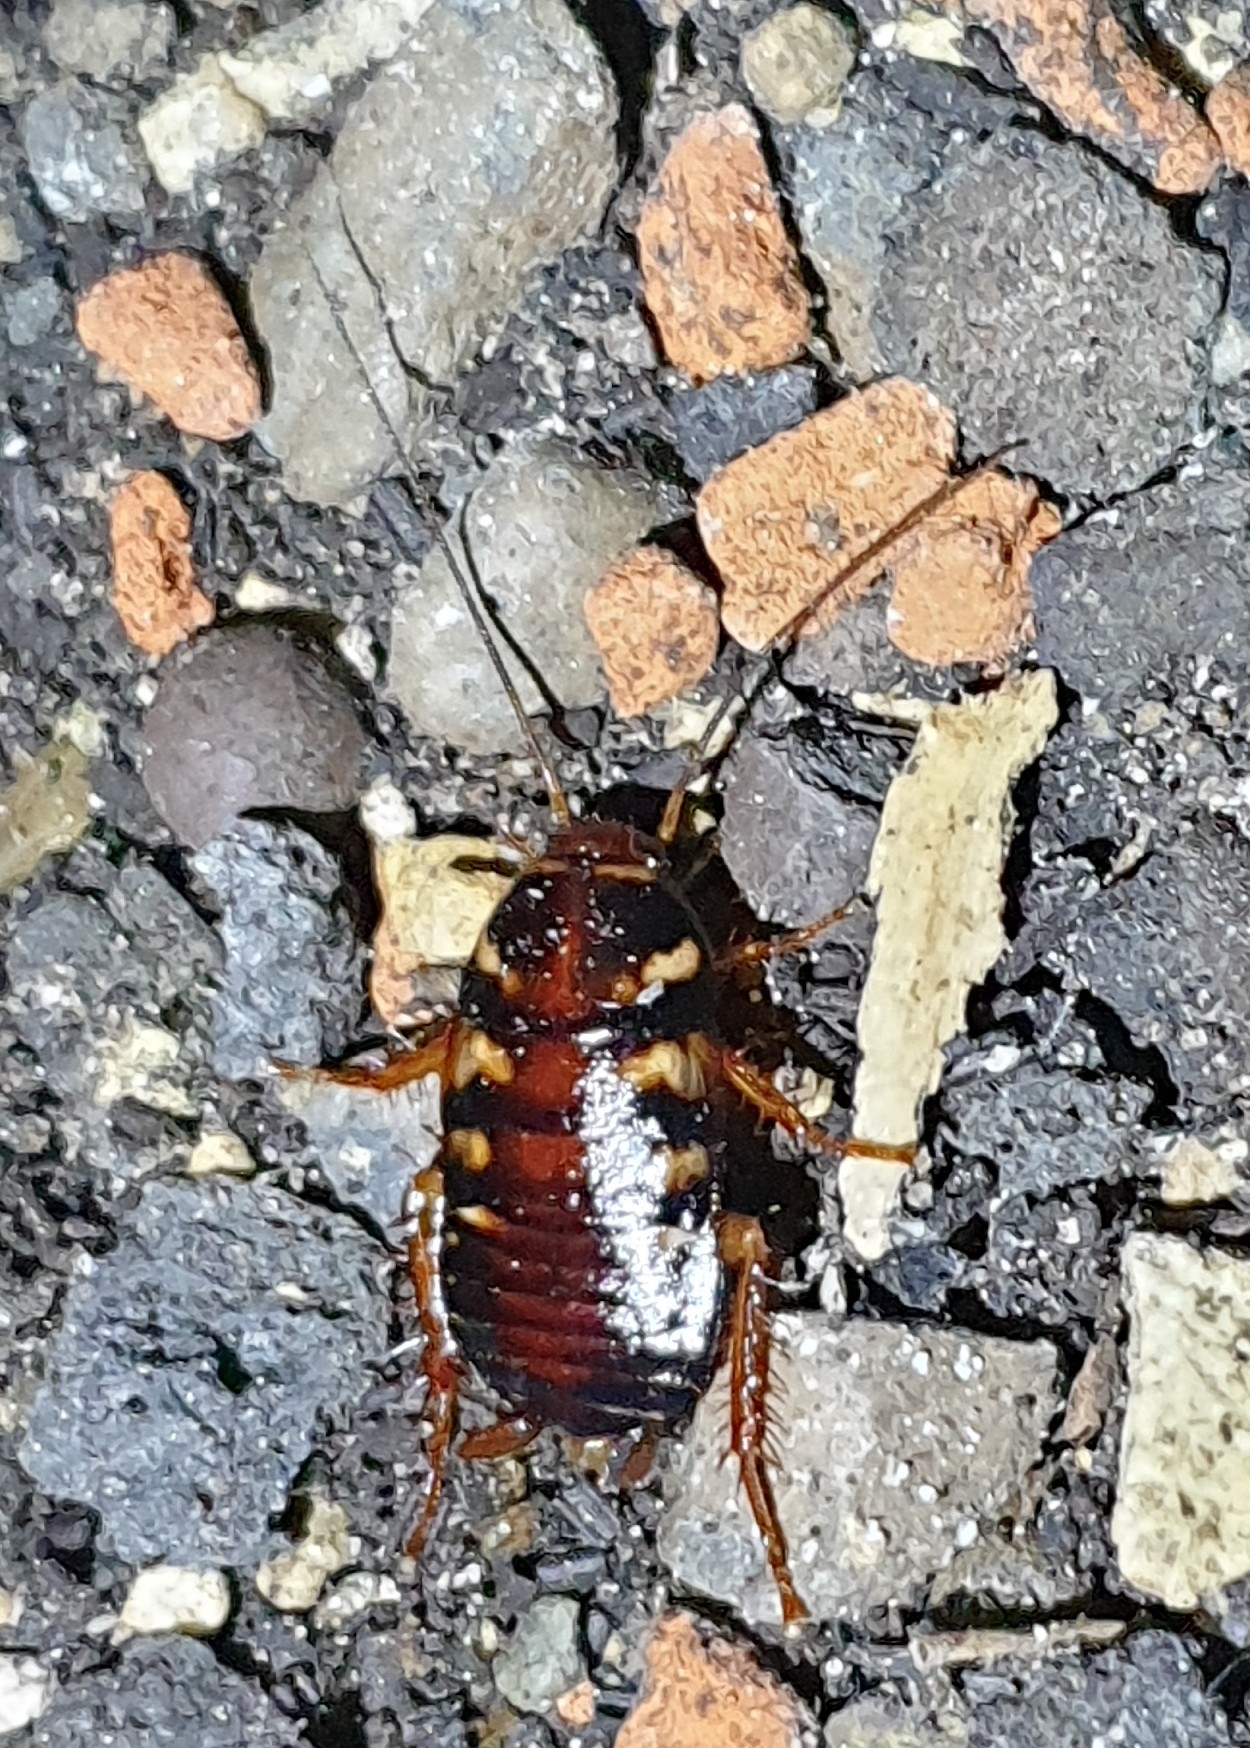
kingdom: Animalia
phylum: Arthropoda
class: Insecta
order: Blattodea
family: Blattidae
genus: Periplaneta
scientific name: Periplaneta australasiae
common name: Australian cockroach
